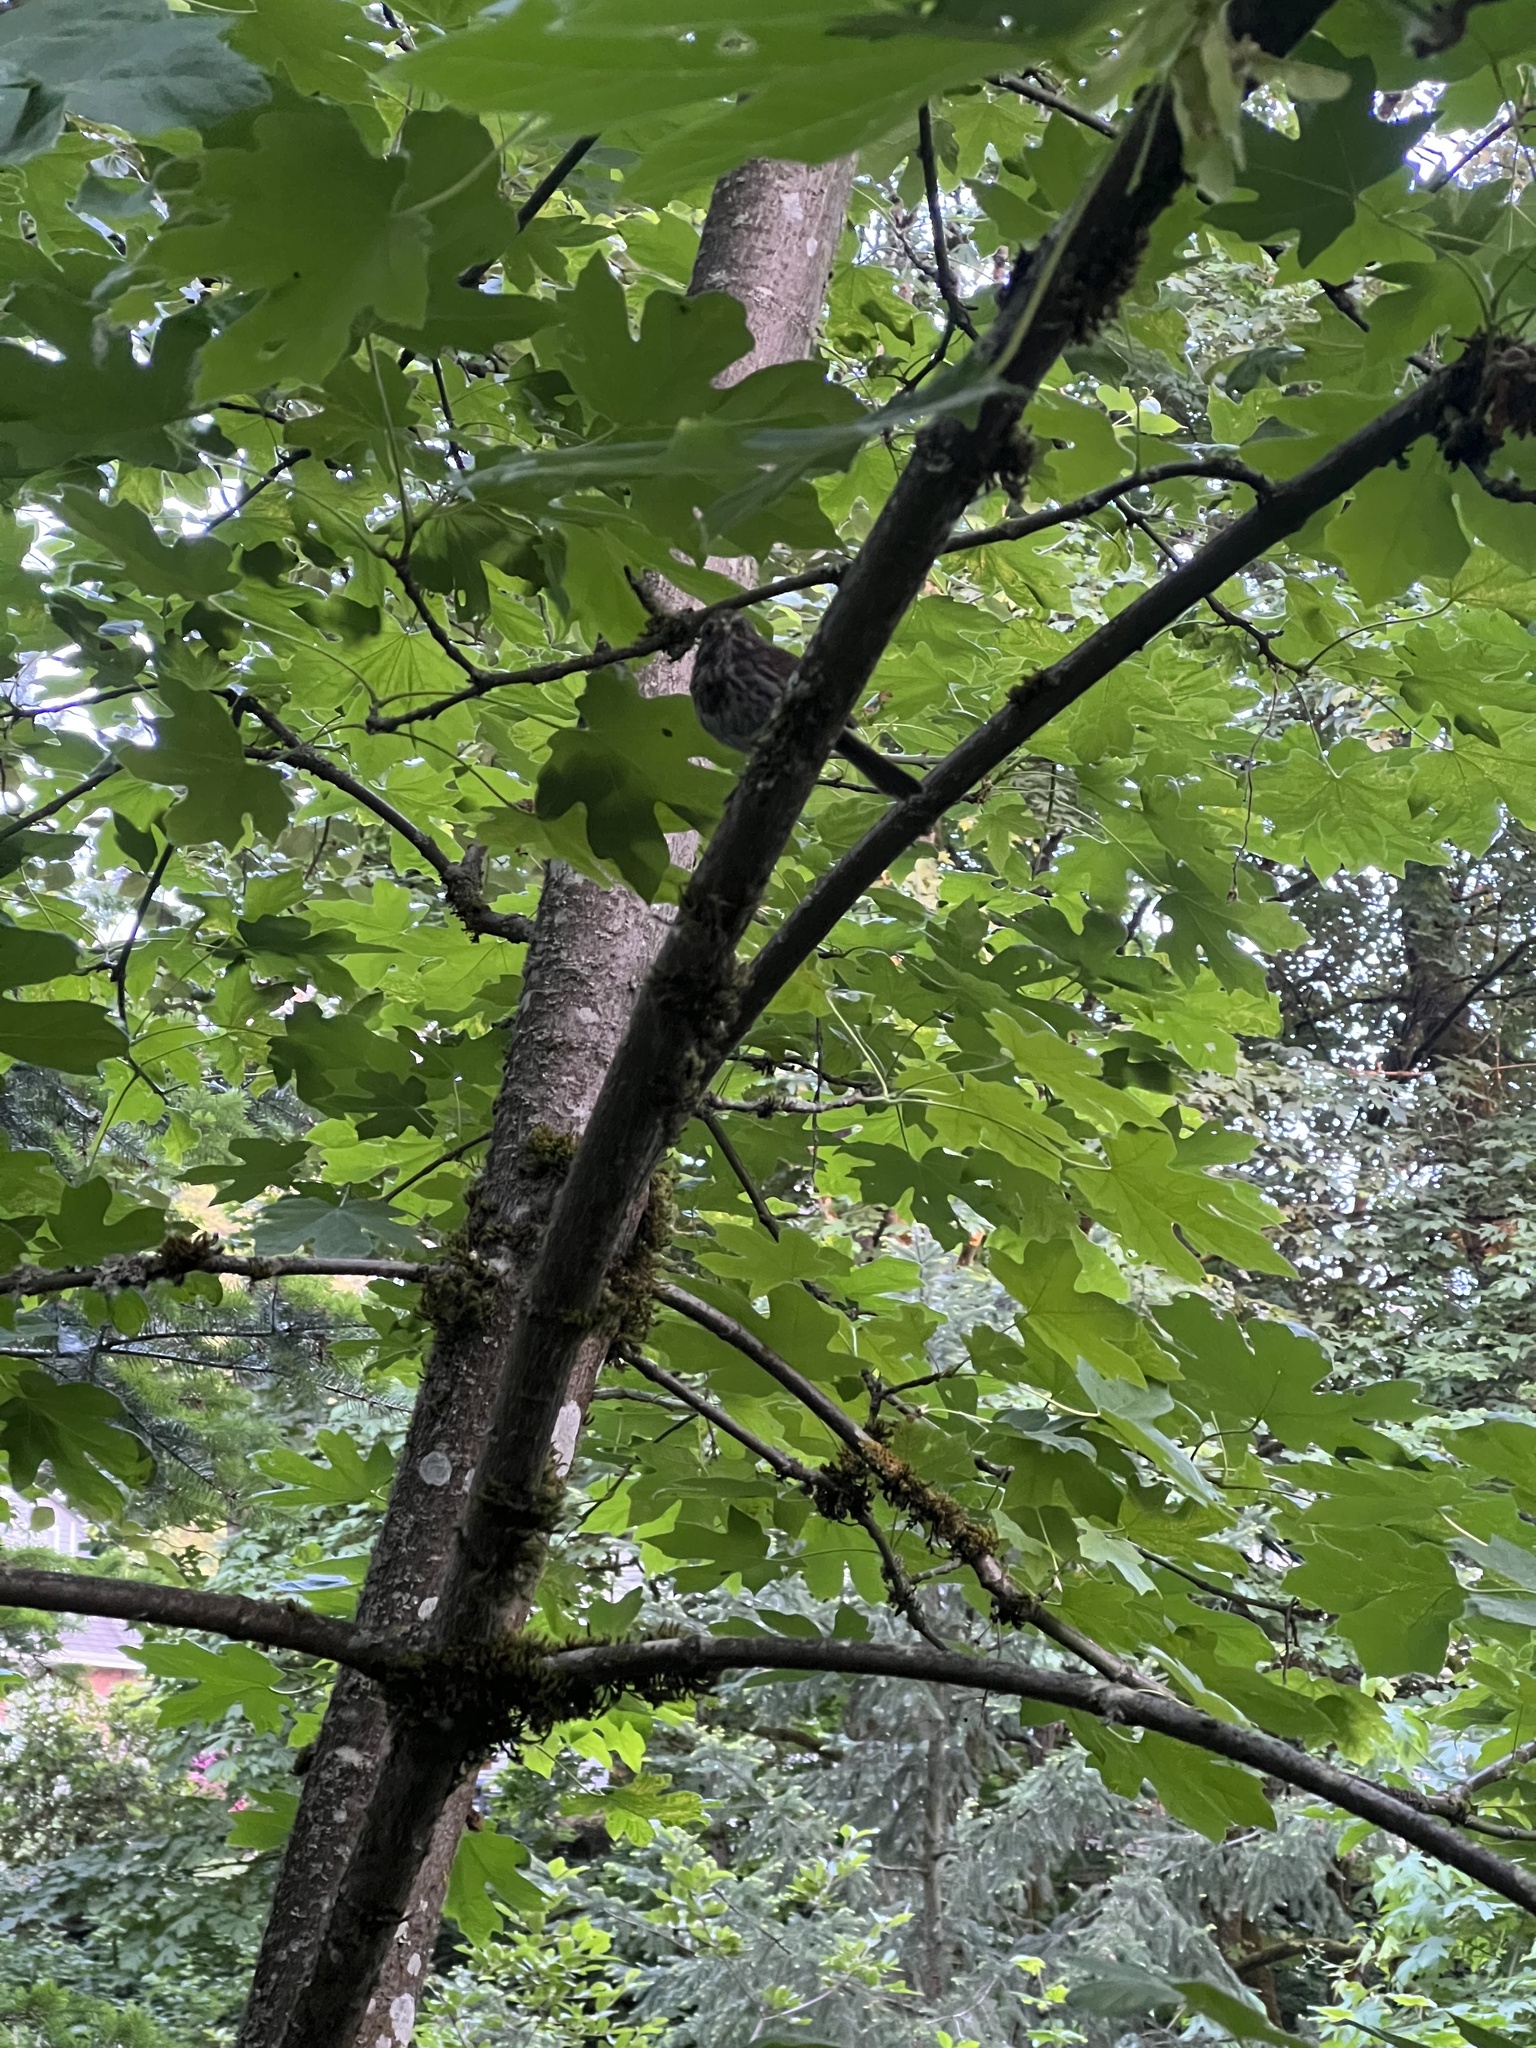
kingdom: Animalia
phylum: Chordata
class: Aves
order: Passeriformes
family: Passerellidae
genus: Melospiza
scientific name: Melospiza melodia
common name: Song sparrow
